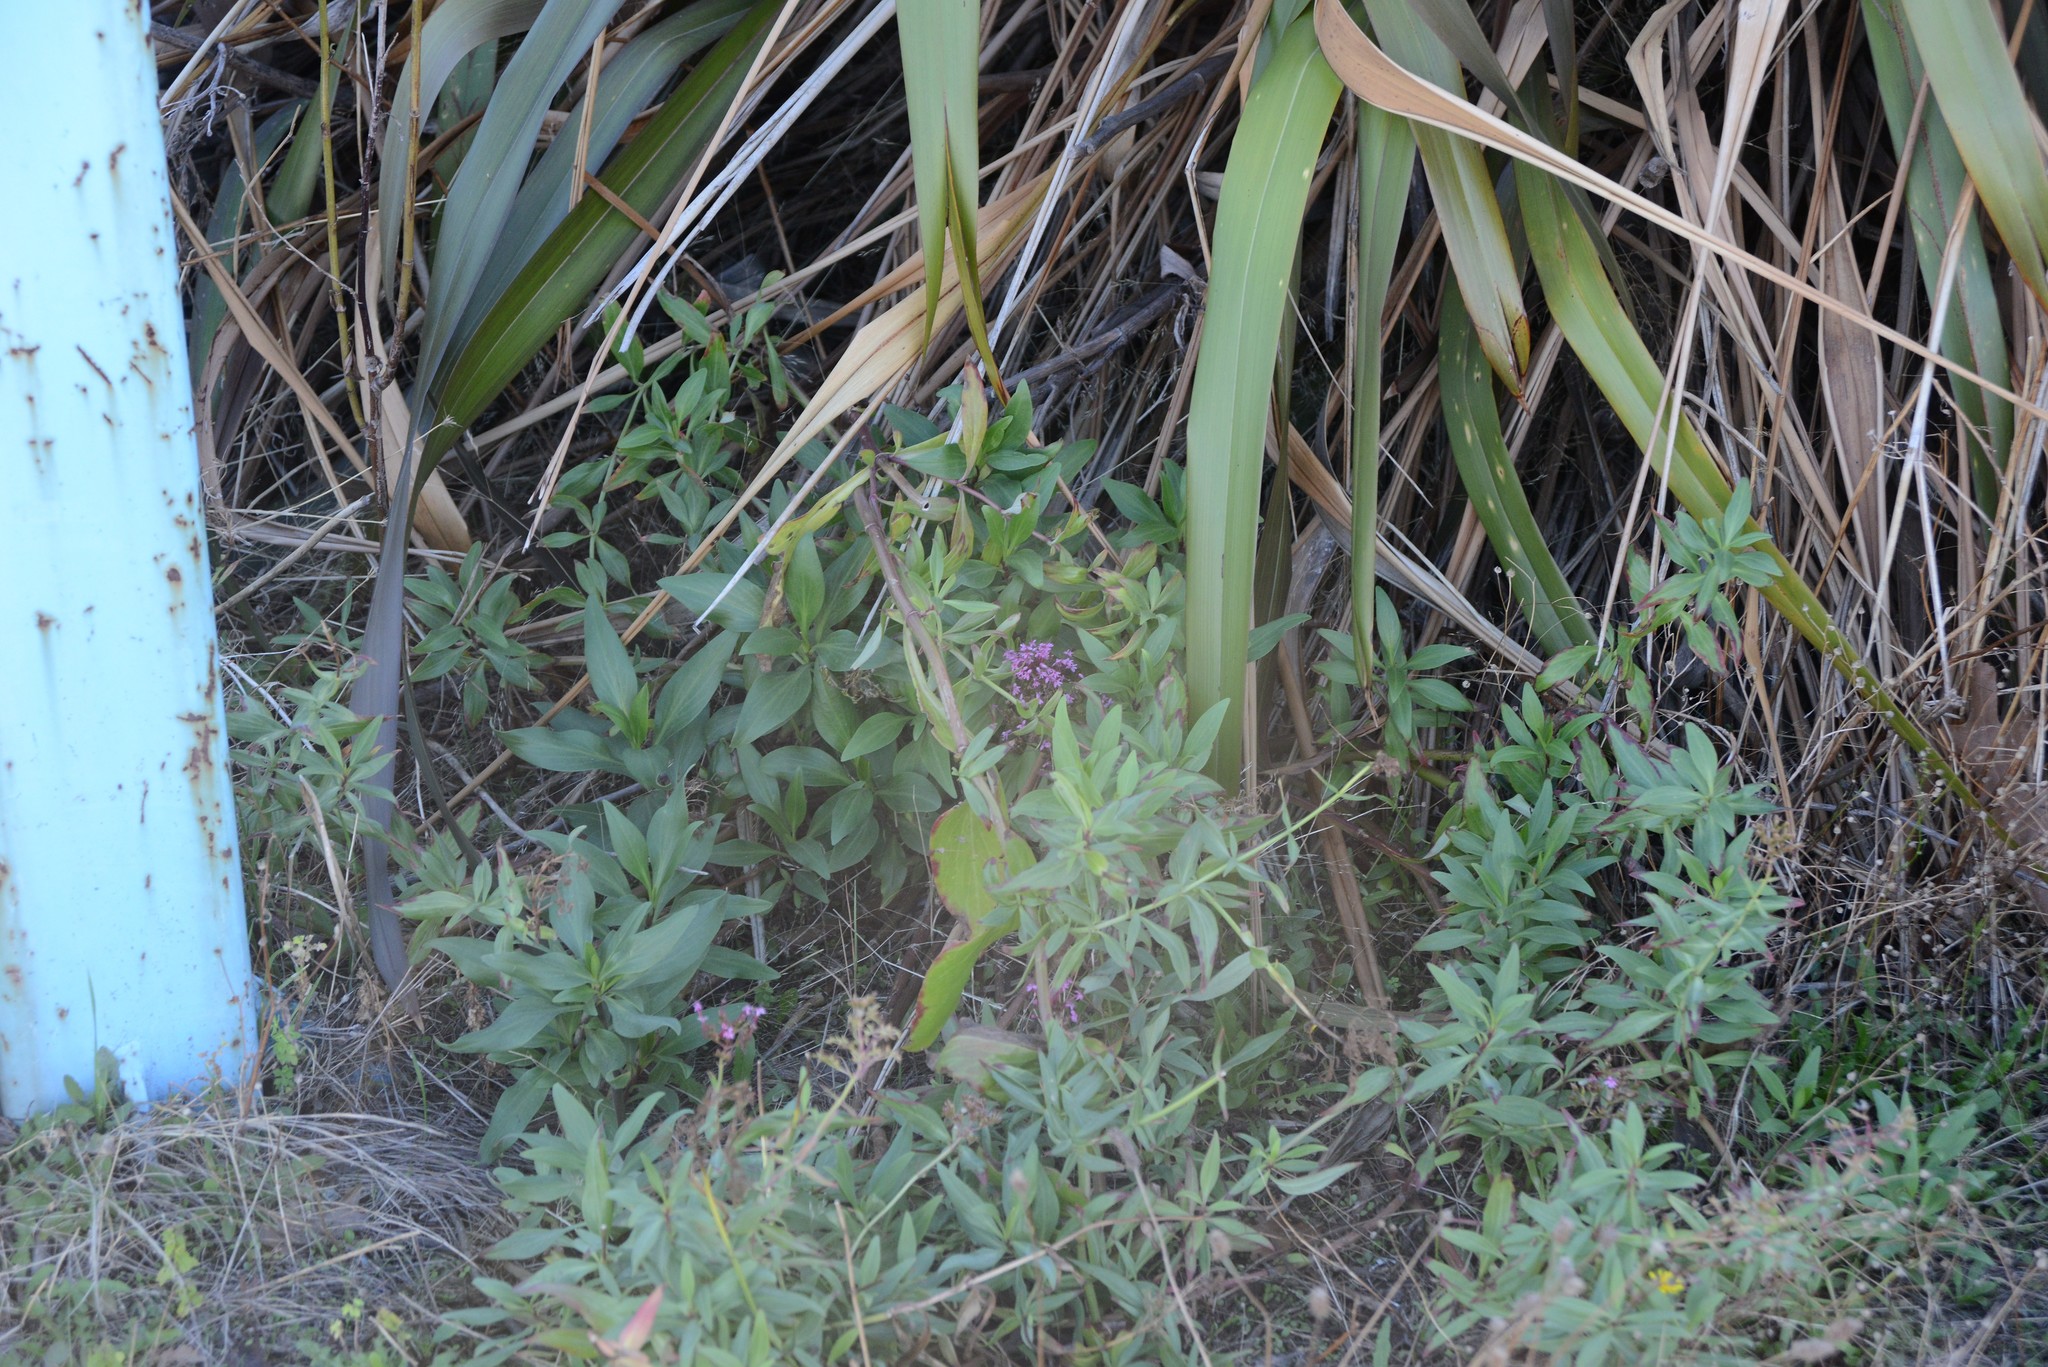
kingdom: Plantae
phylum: Tracheophyta
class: Magnoliopsida
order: Dipsacales
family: Caprifoliaceae
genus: Centranthus
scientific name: Centranthus ruber
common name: Red valerian
